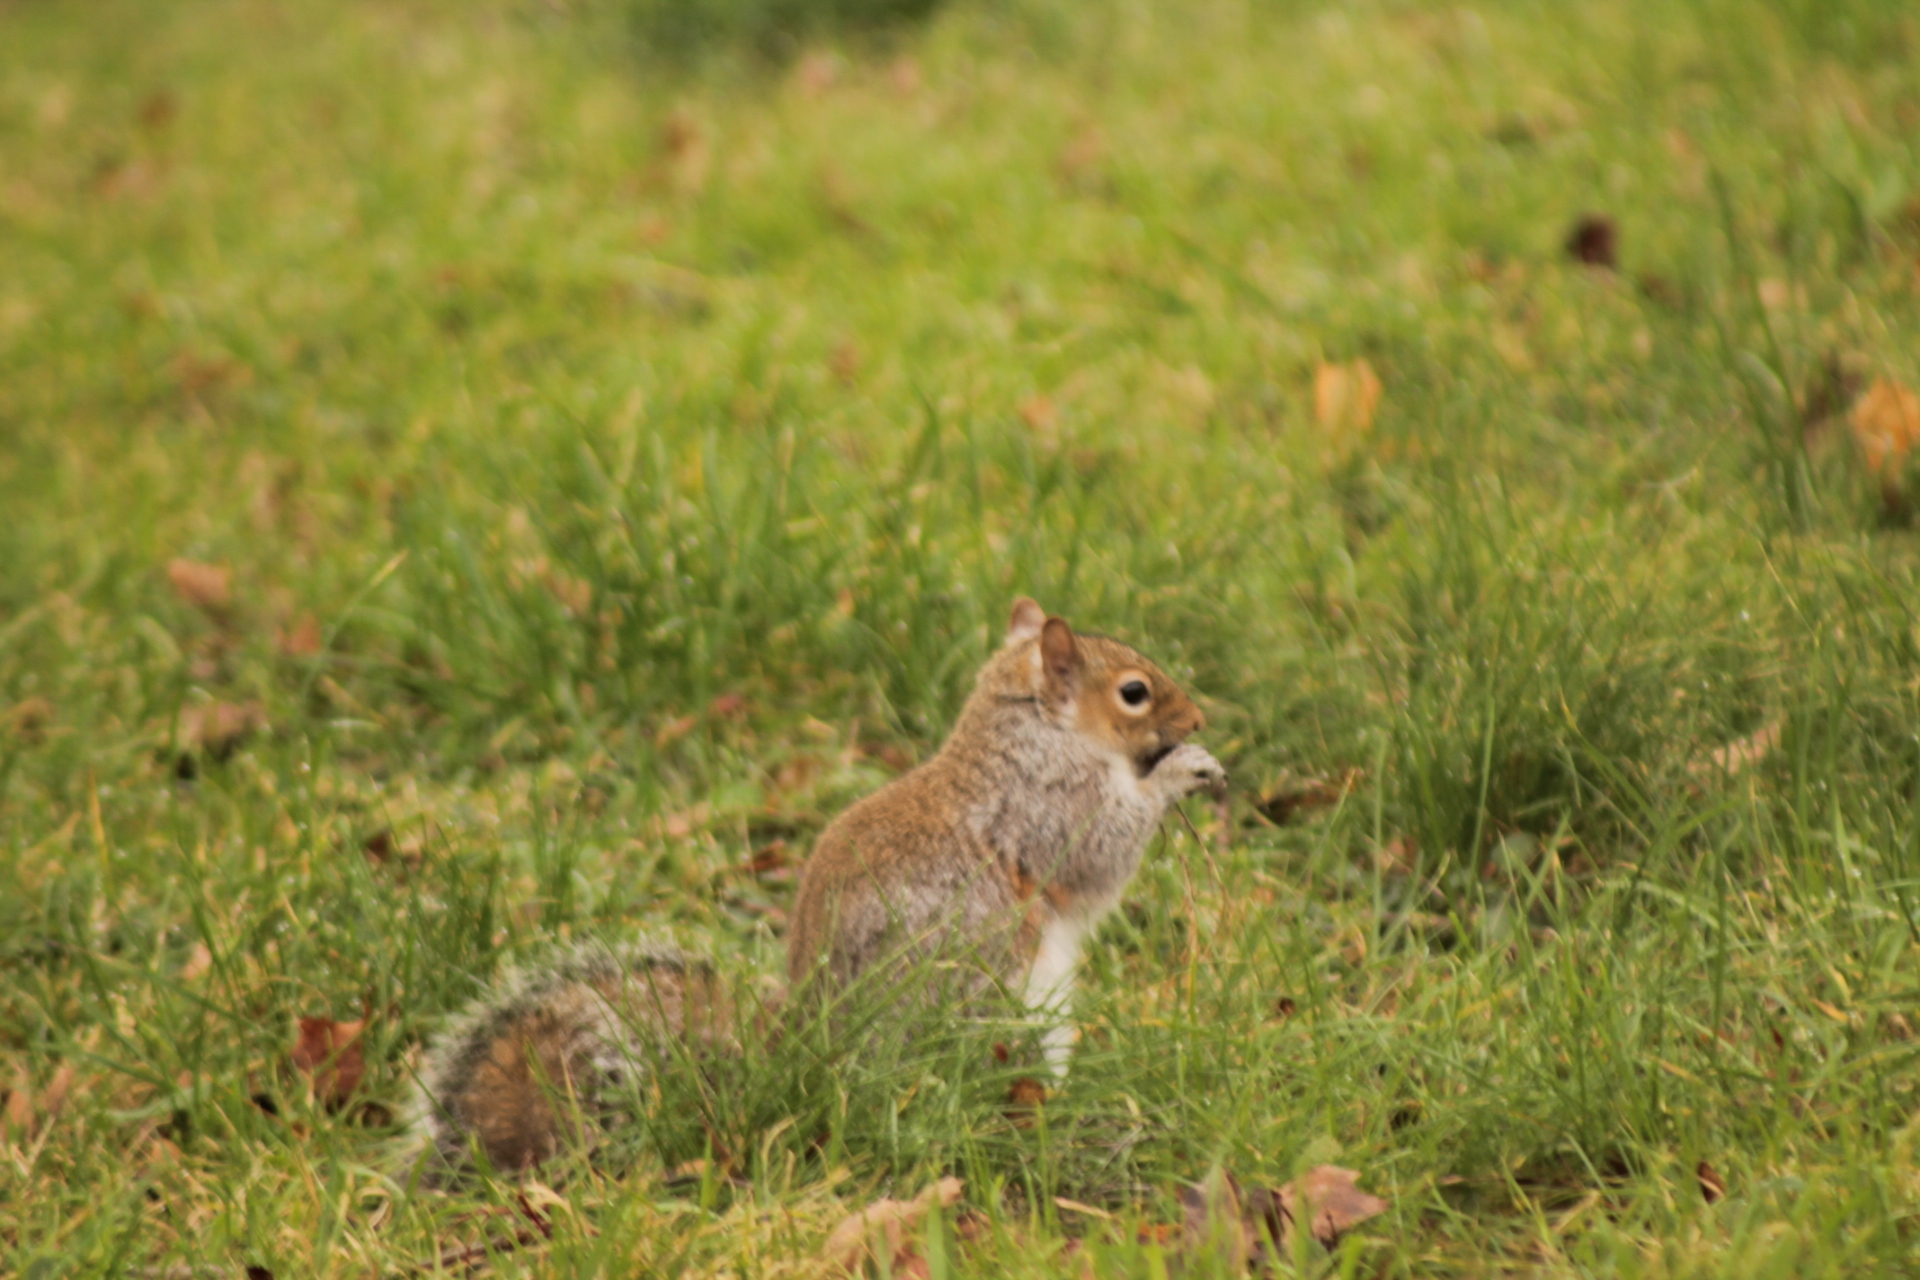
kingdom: Animalia
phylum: Chordata
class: Mammalia
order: Rodentia
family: Sciuridae
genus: Sciurus
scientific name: Sciurus carolinensis
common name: Eastern gray squirrel
